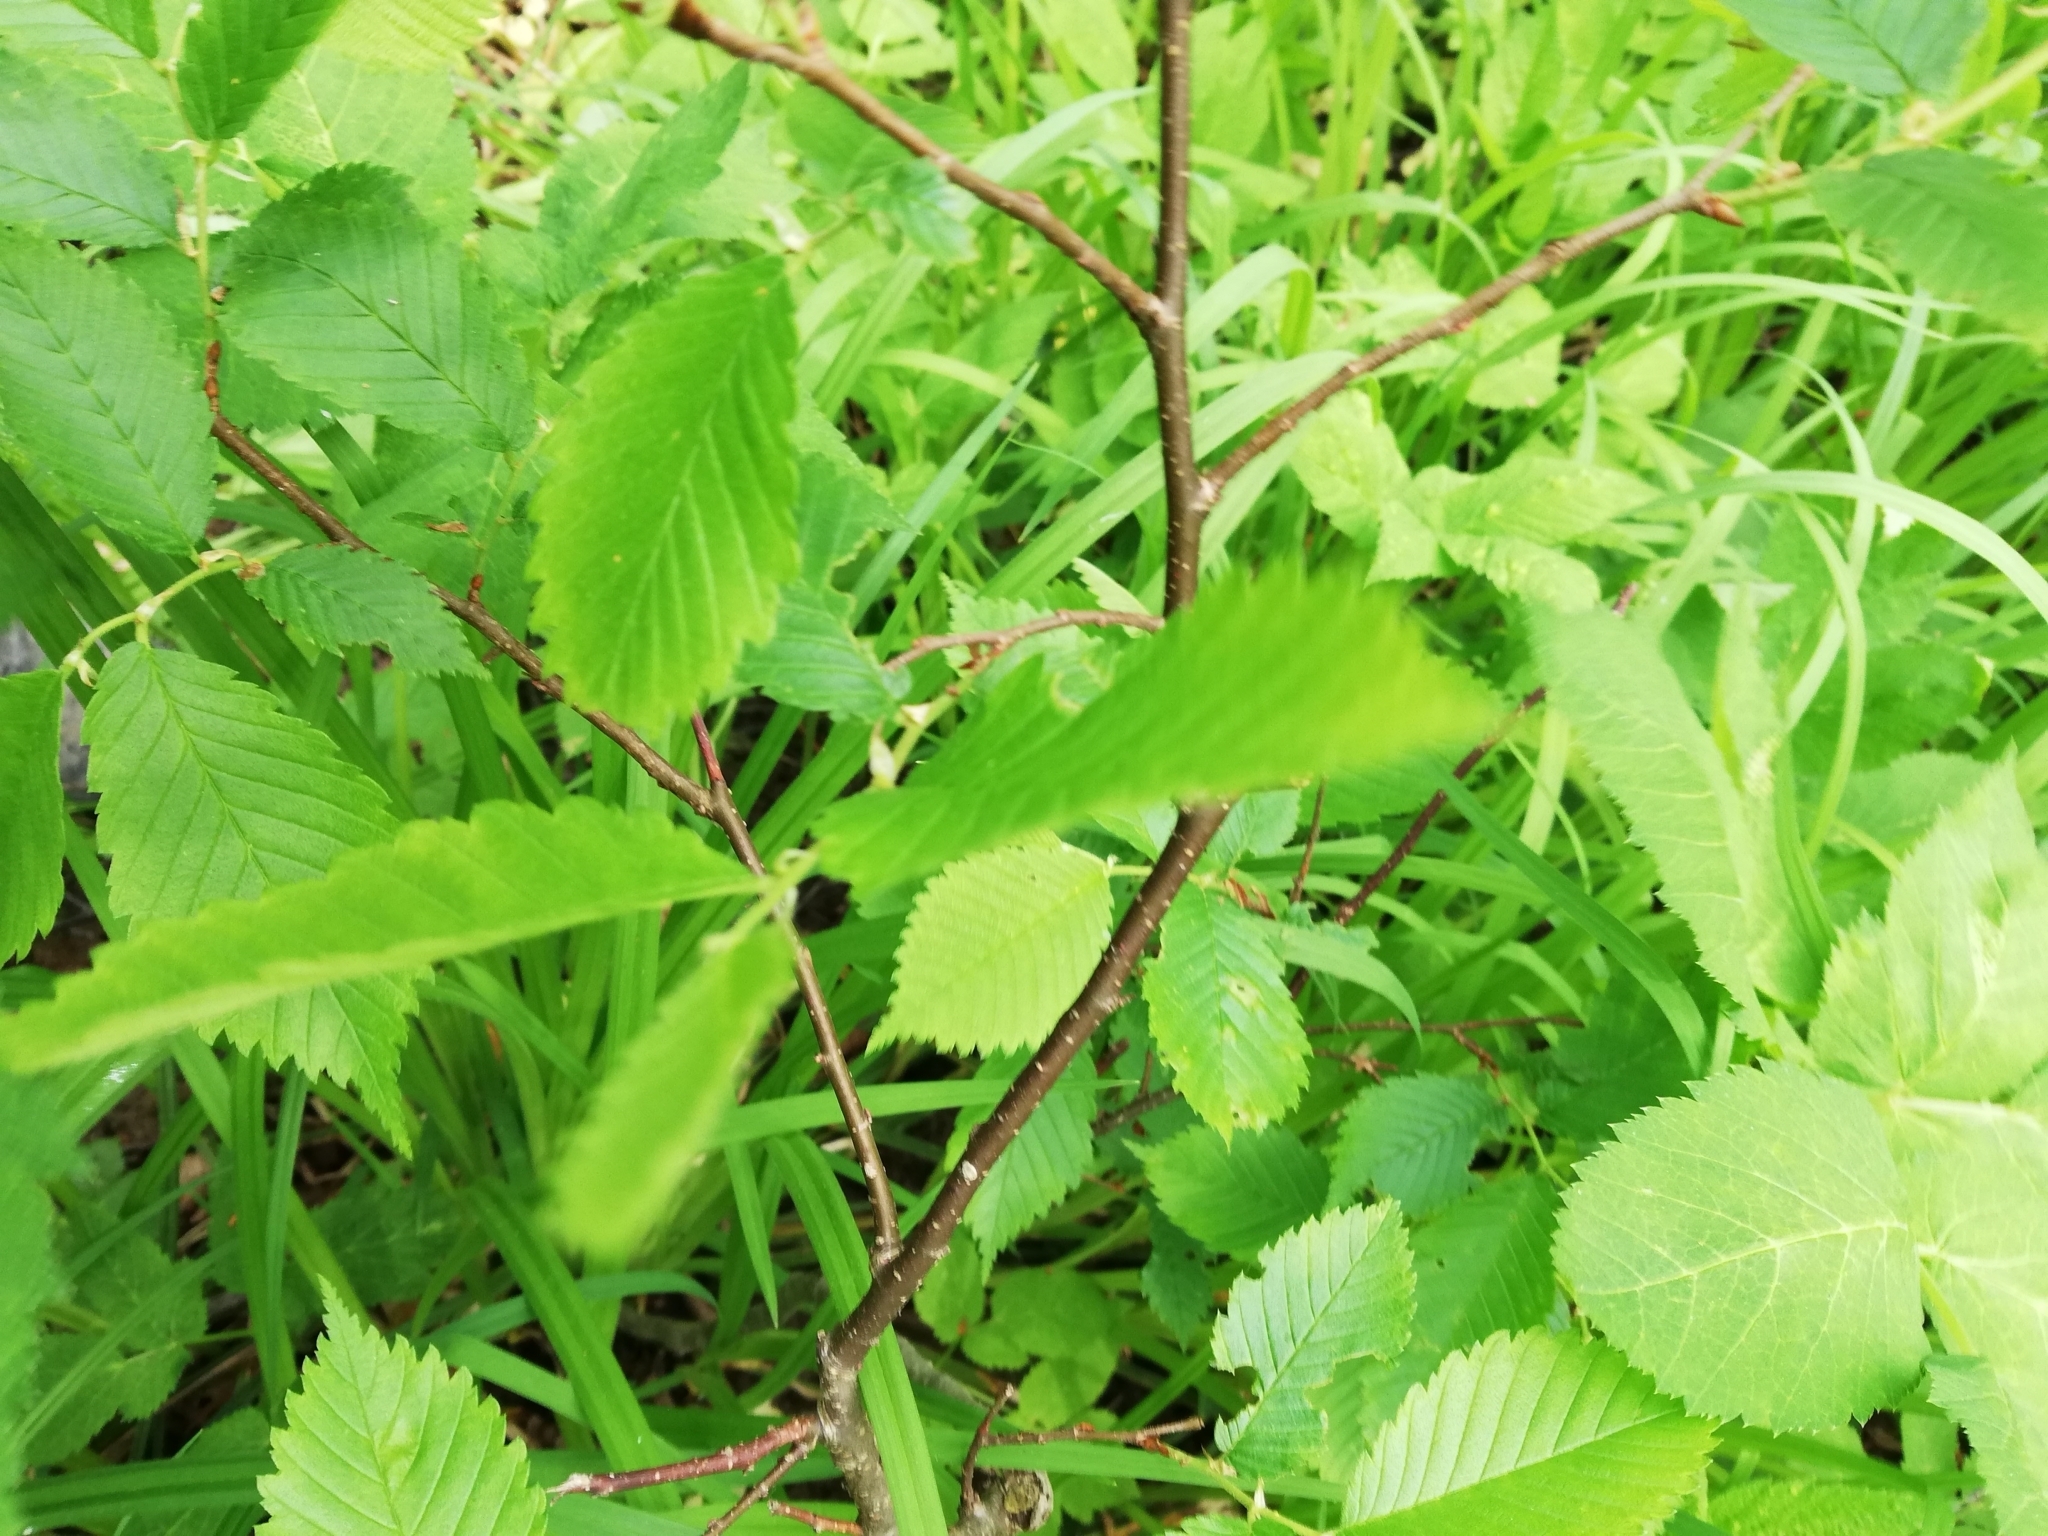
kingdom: Plantae
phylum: Tracheophyta
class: Magnoliopsida
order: Rosales
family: Ulmaceae
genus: Ulmus
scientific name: Ulmus laevis
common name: European white-elm
